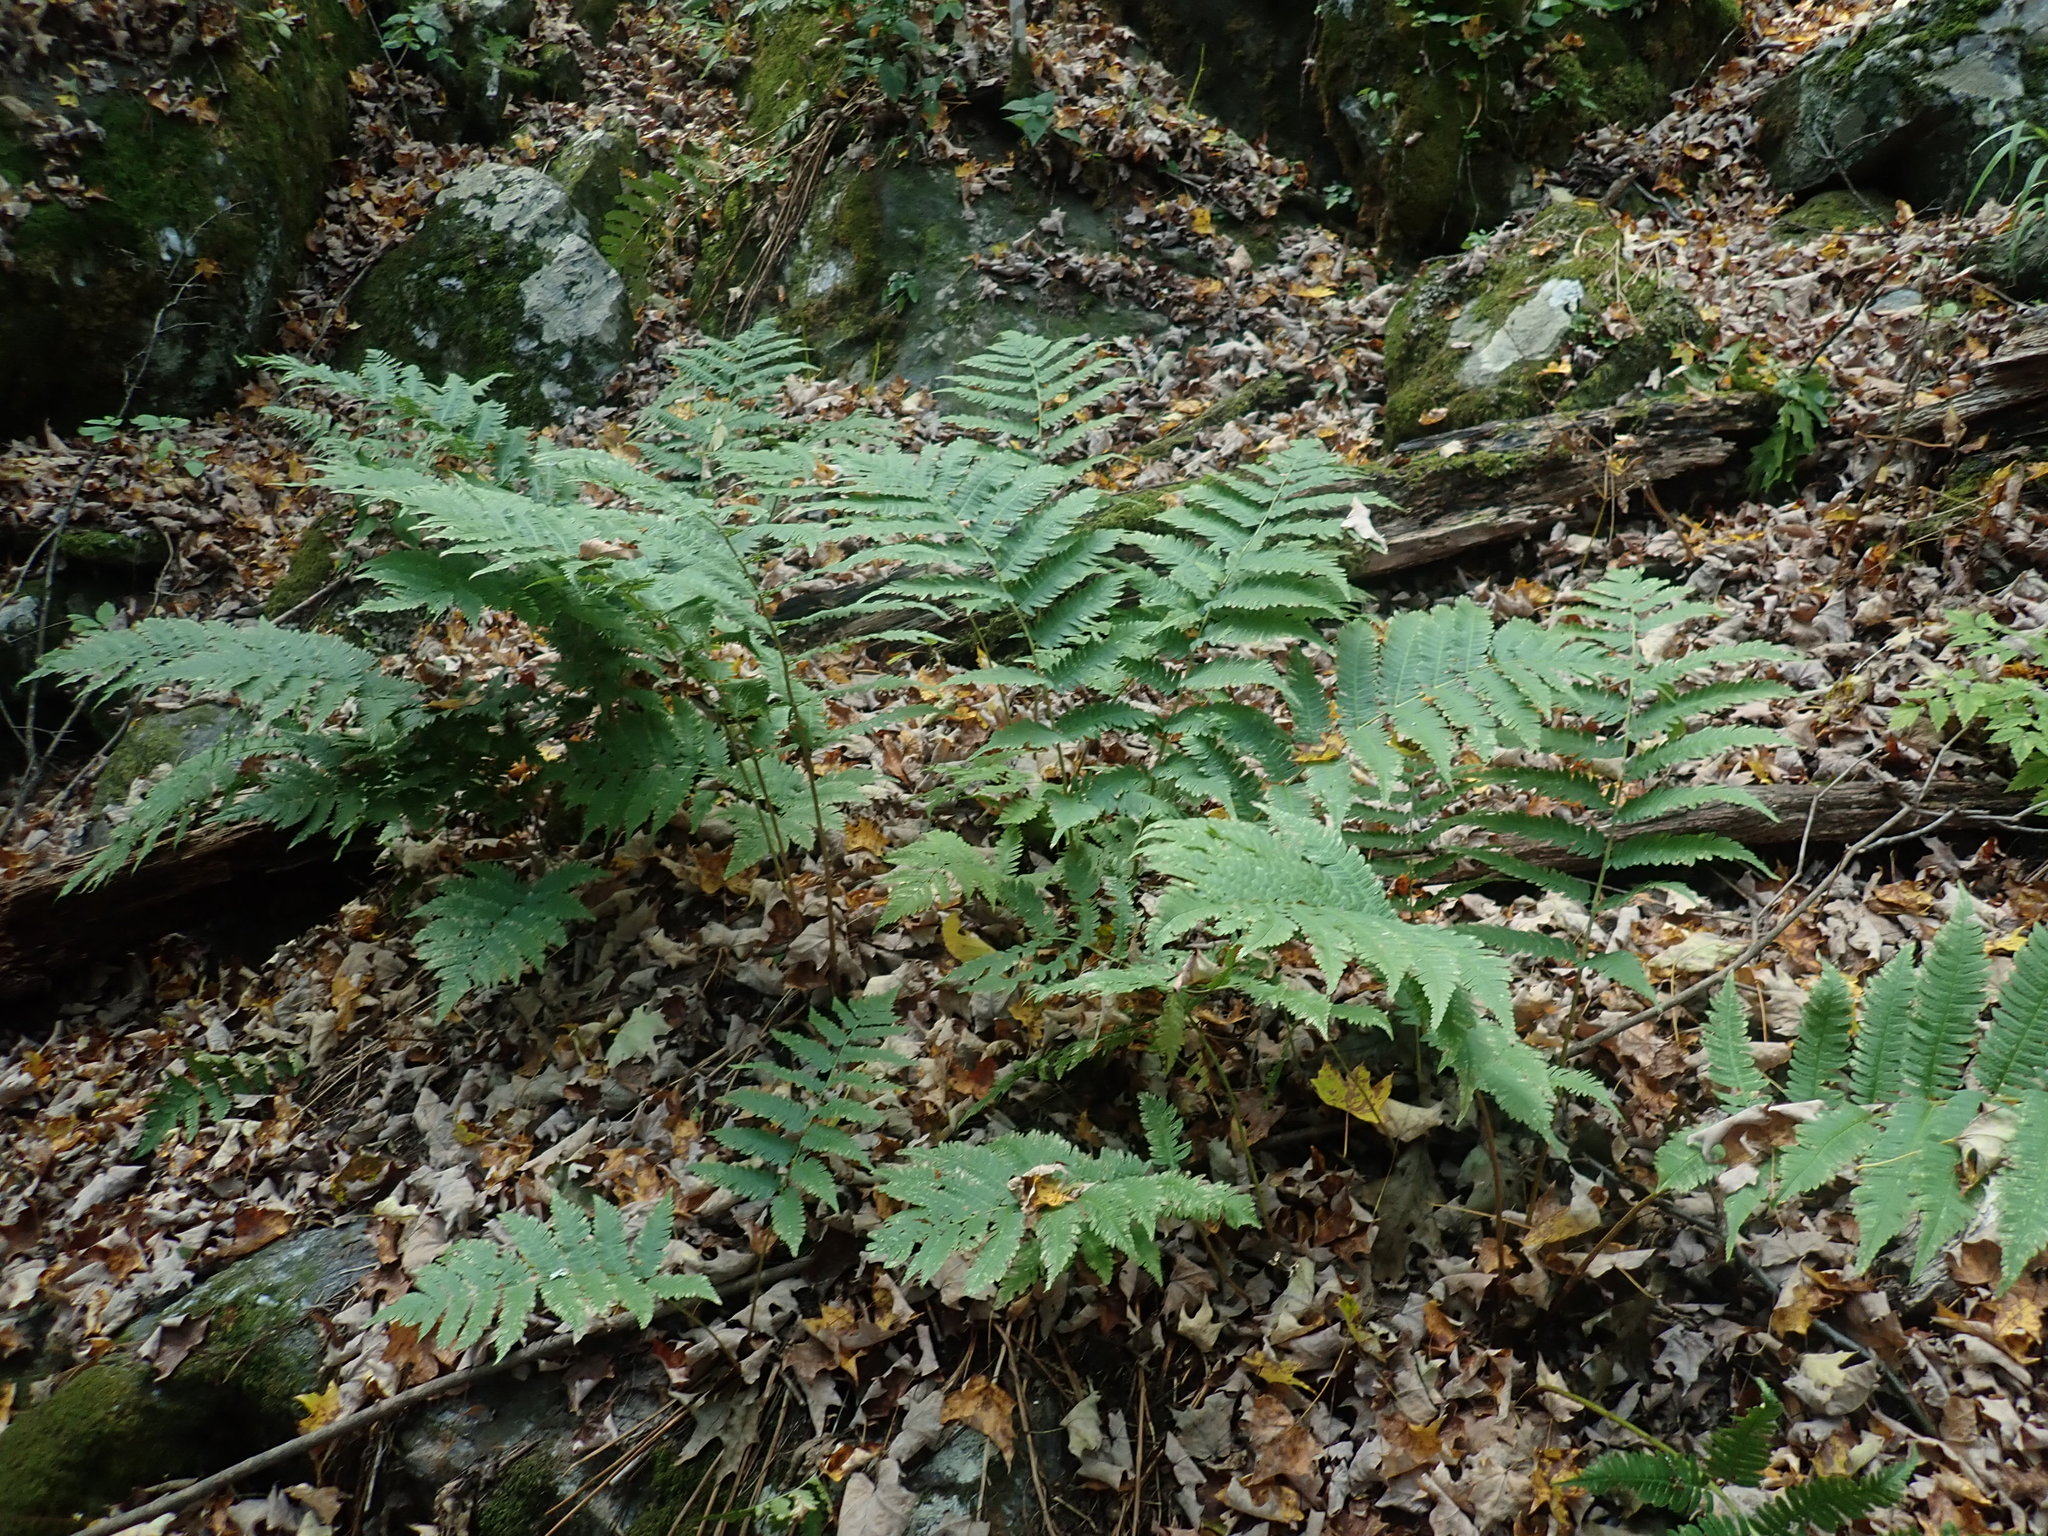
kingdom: Plantae
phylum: Tracheophyta
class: Polypodiopsida
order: Polypodiales
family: Dryopteridaceae
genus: Dryopteris
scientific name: Dryopteris goldieana
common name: Goldie's fern
